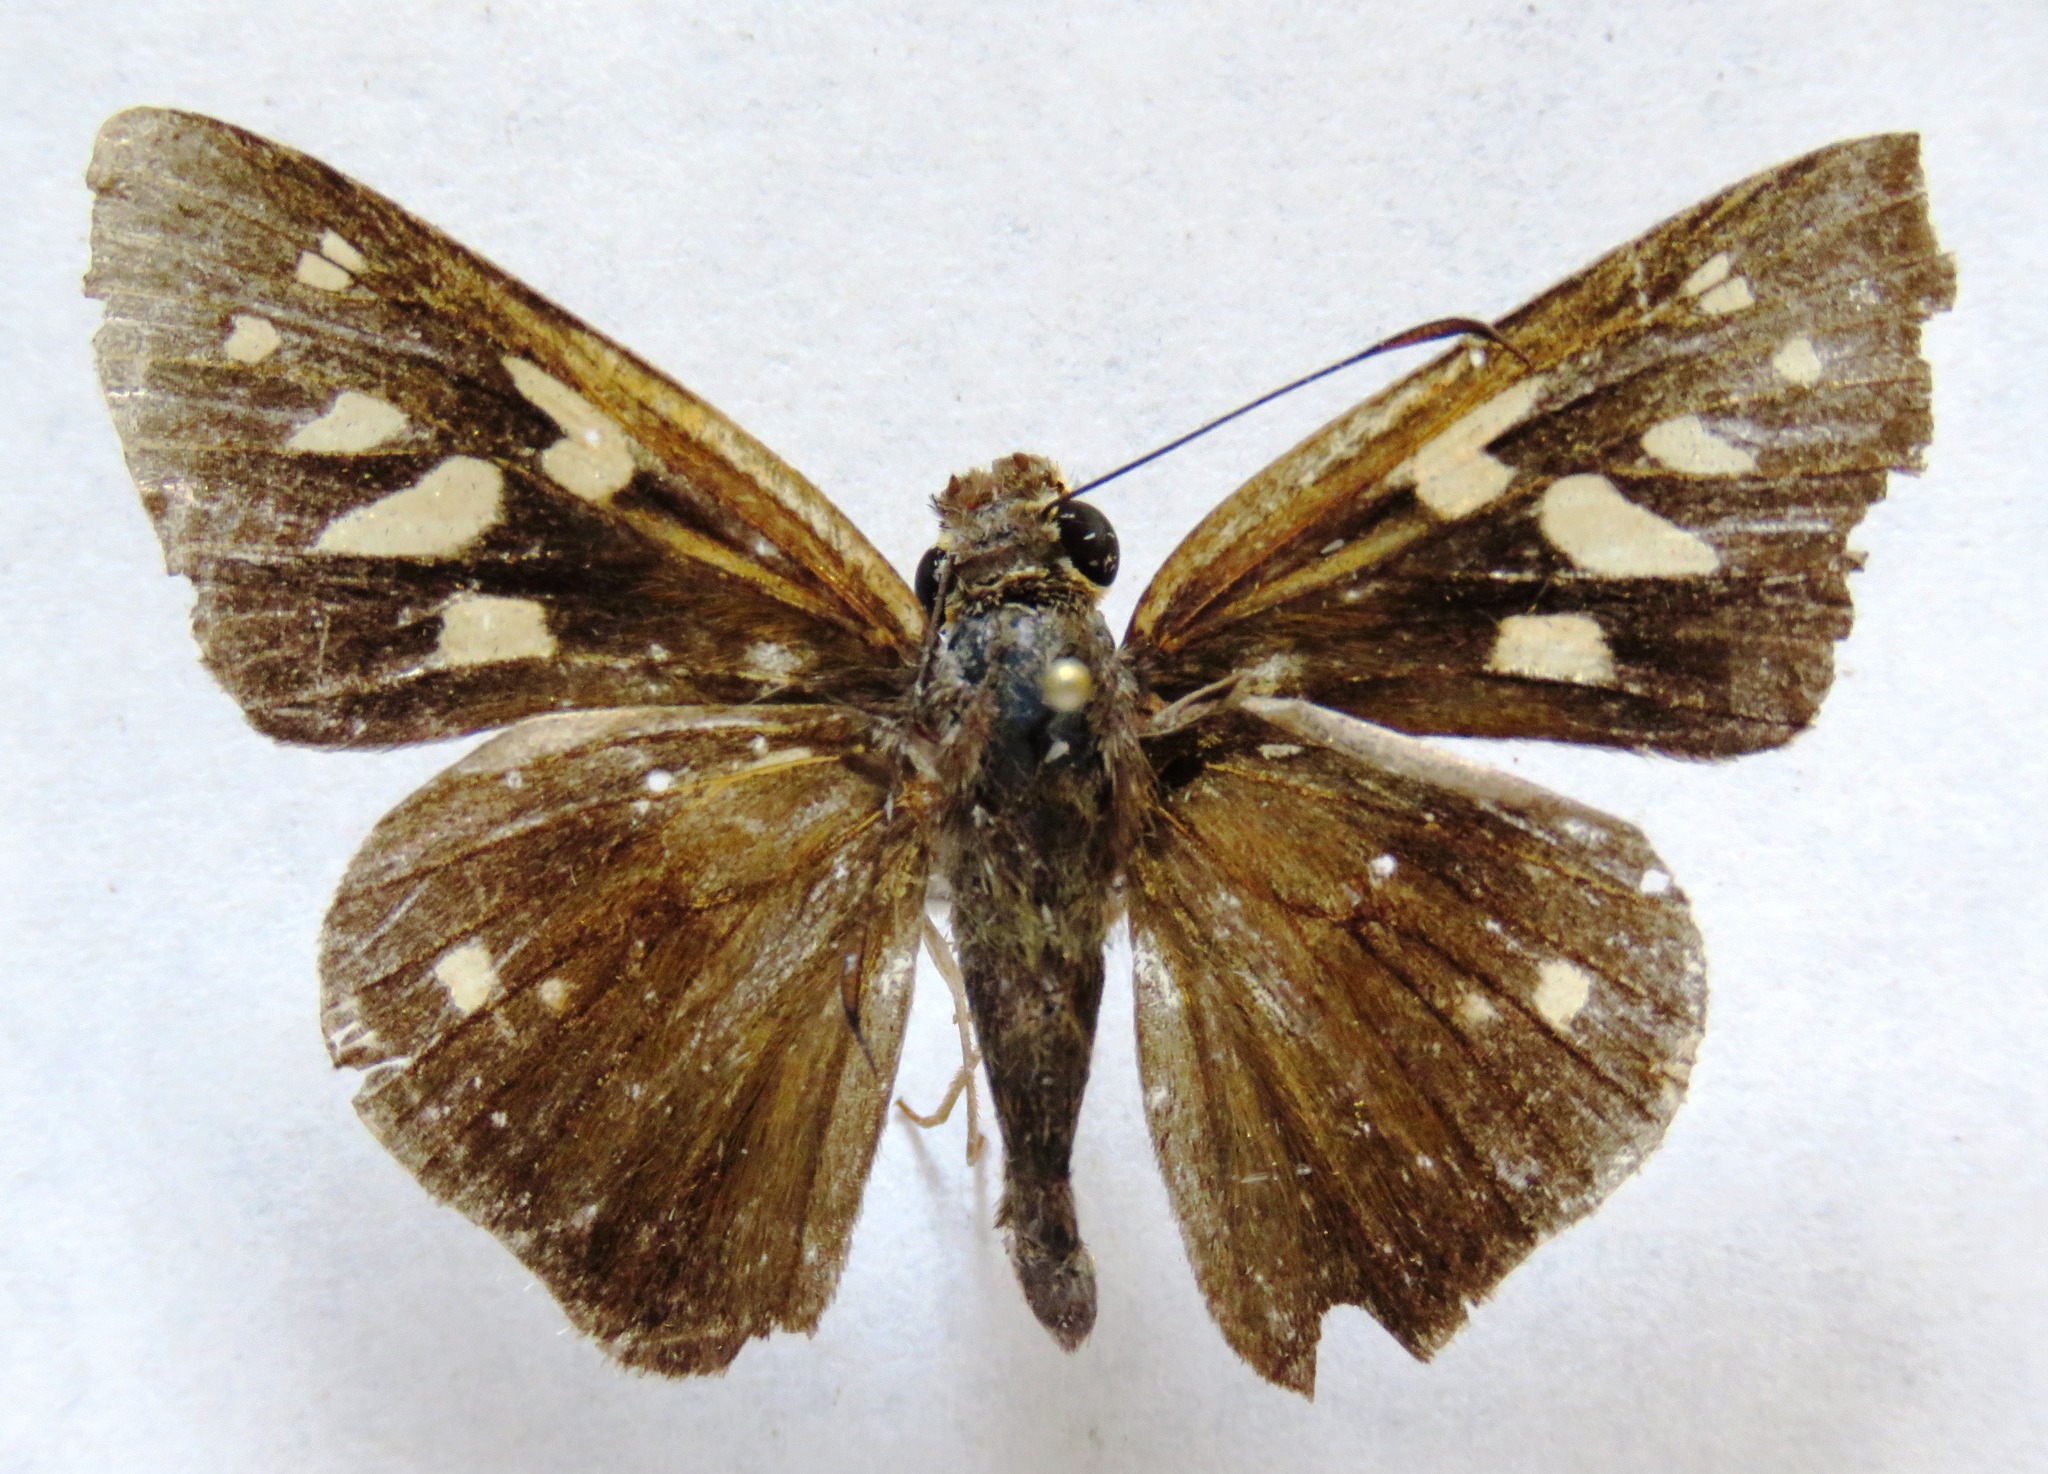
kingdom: Animalia
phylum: Arthropoda
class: Insecta
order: Lepidoptera
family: Hesperiidae
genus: Calpodes
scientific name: Calpodes
